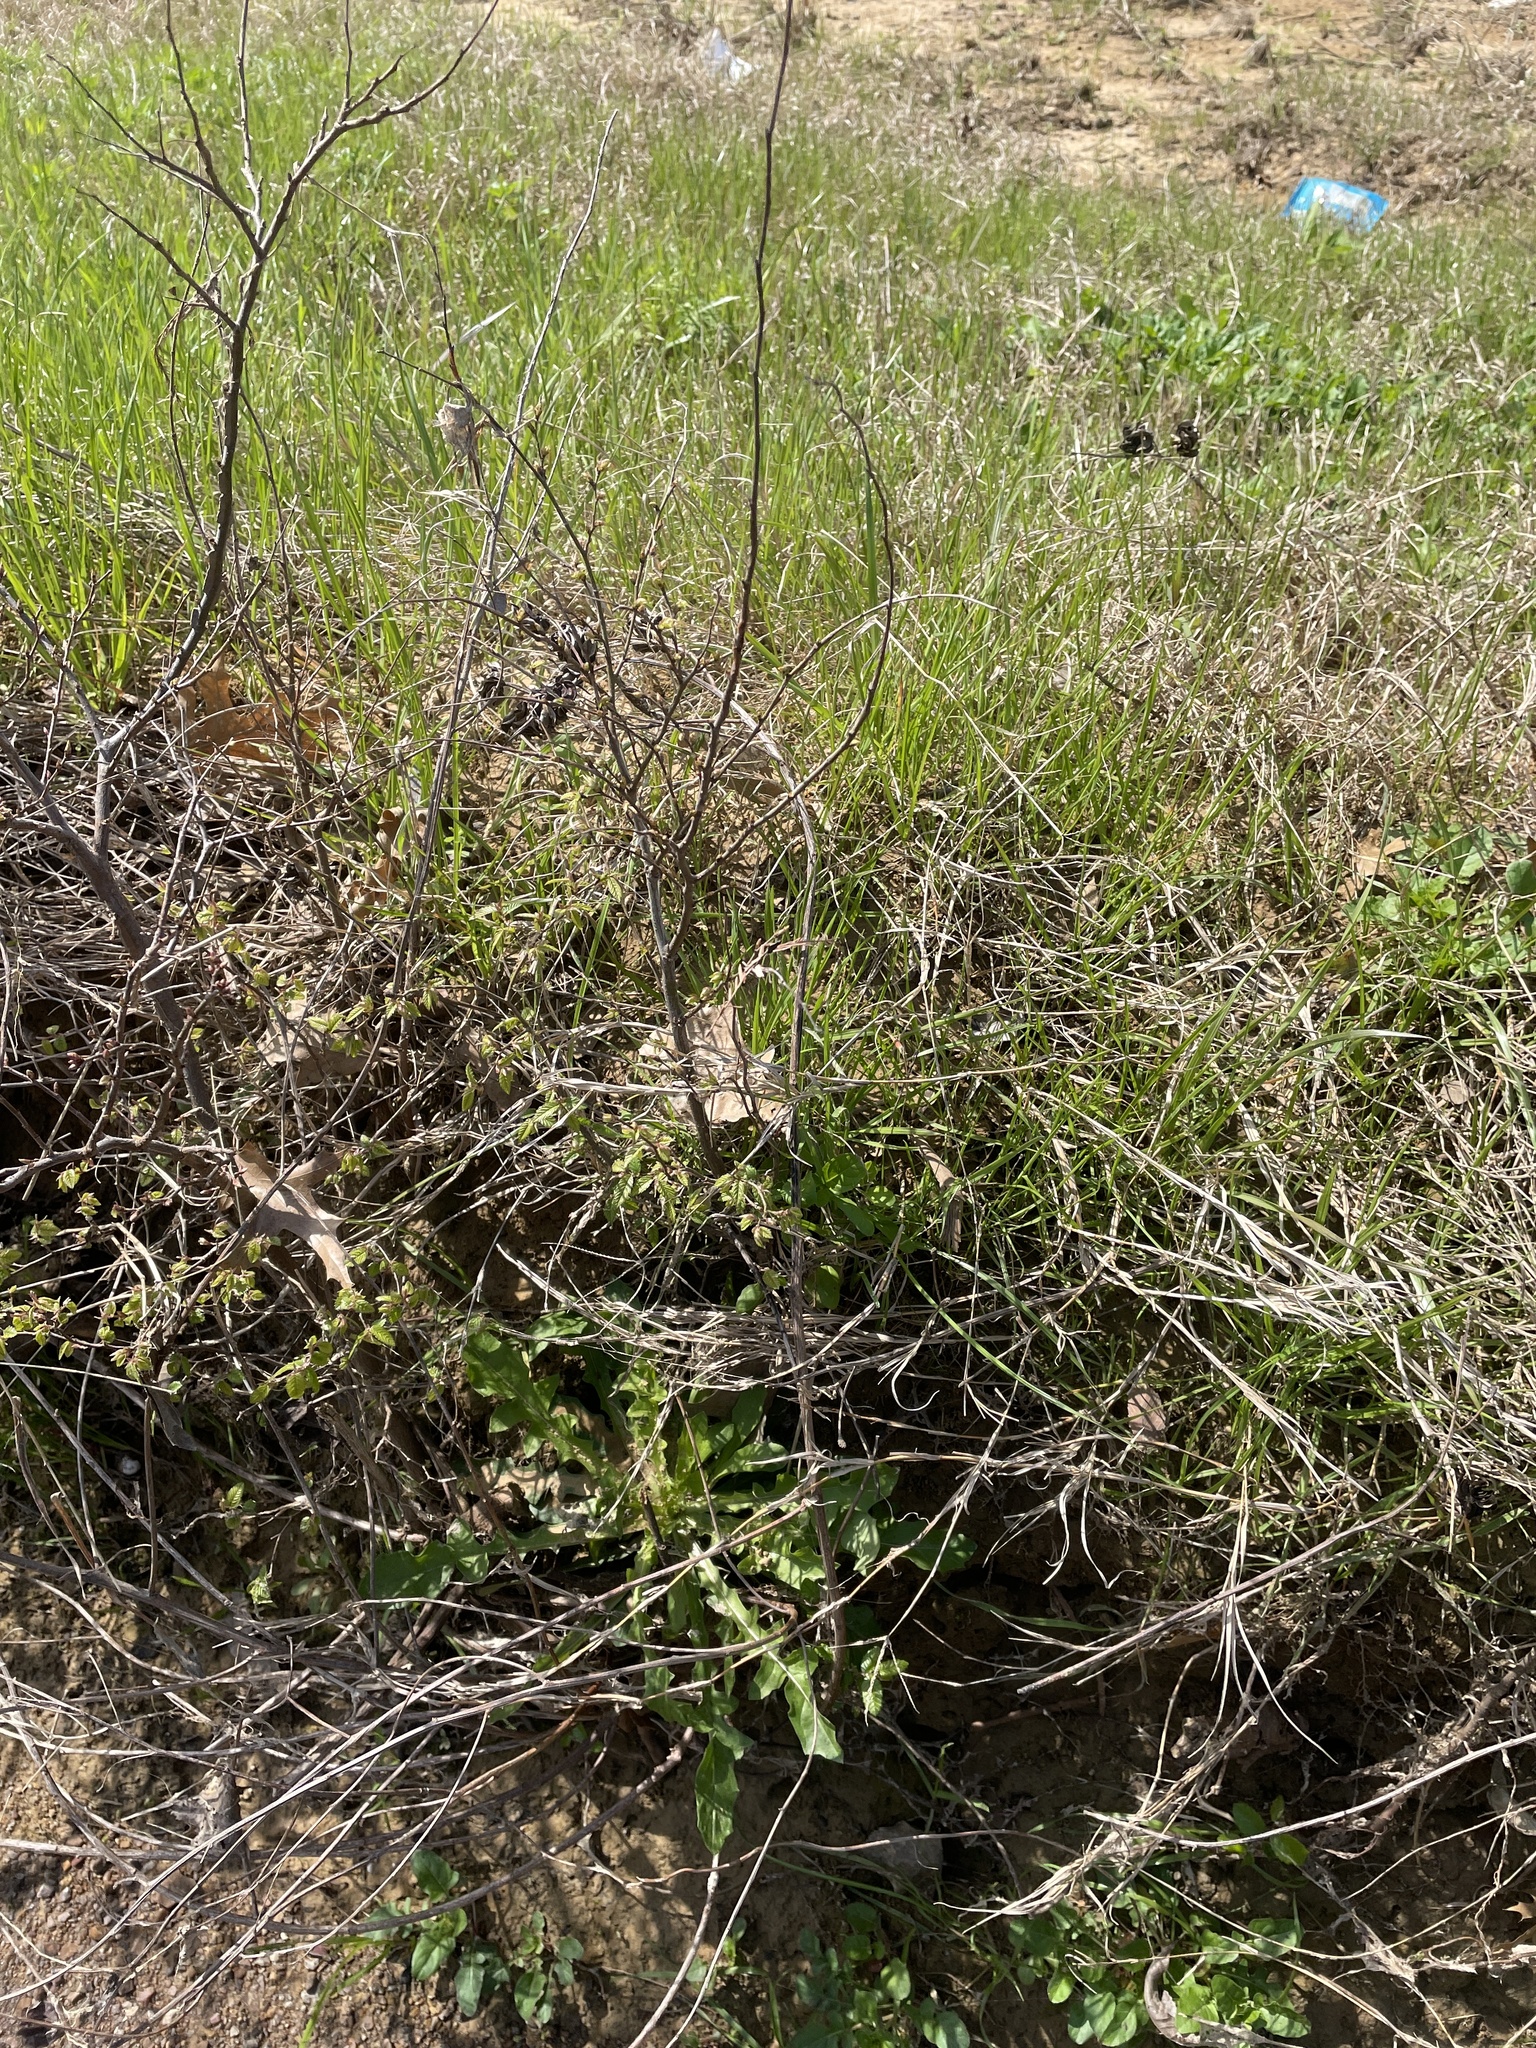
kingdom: Plantae
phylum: Tracheophyta
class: Magnoliopsida
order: Fabales
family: Fabaceae
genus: Desmanthus
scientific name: Desmanthus illinoensis
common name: Illinois bundle-flower
